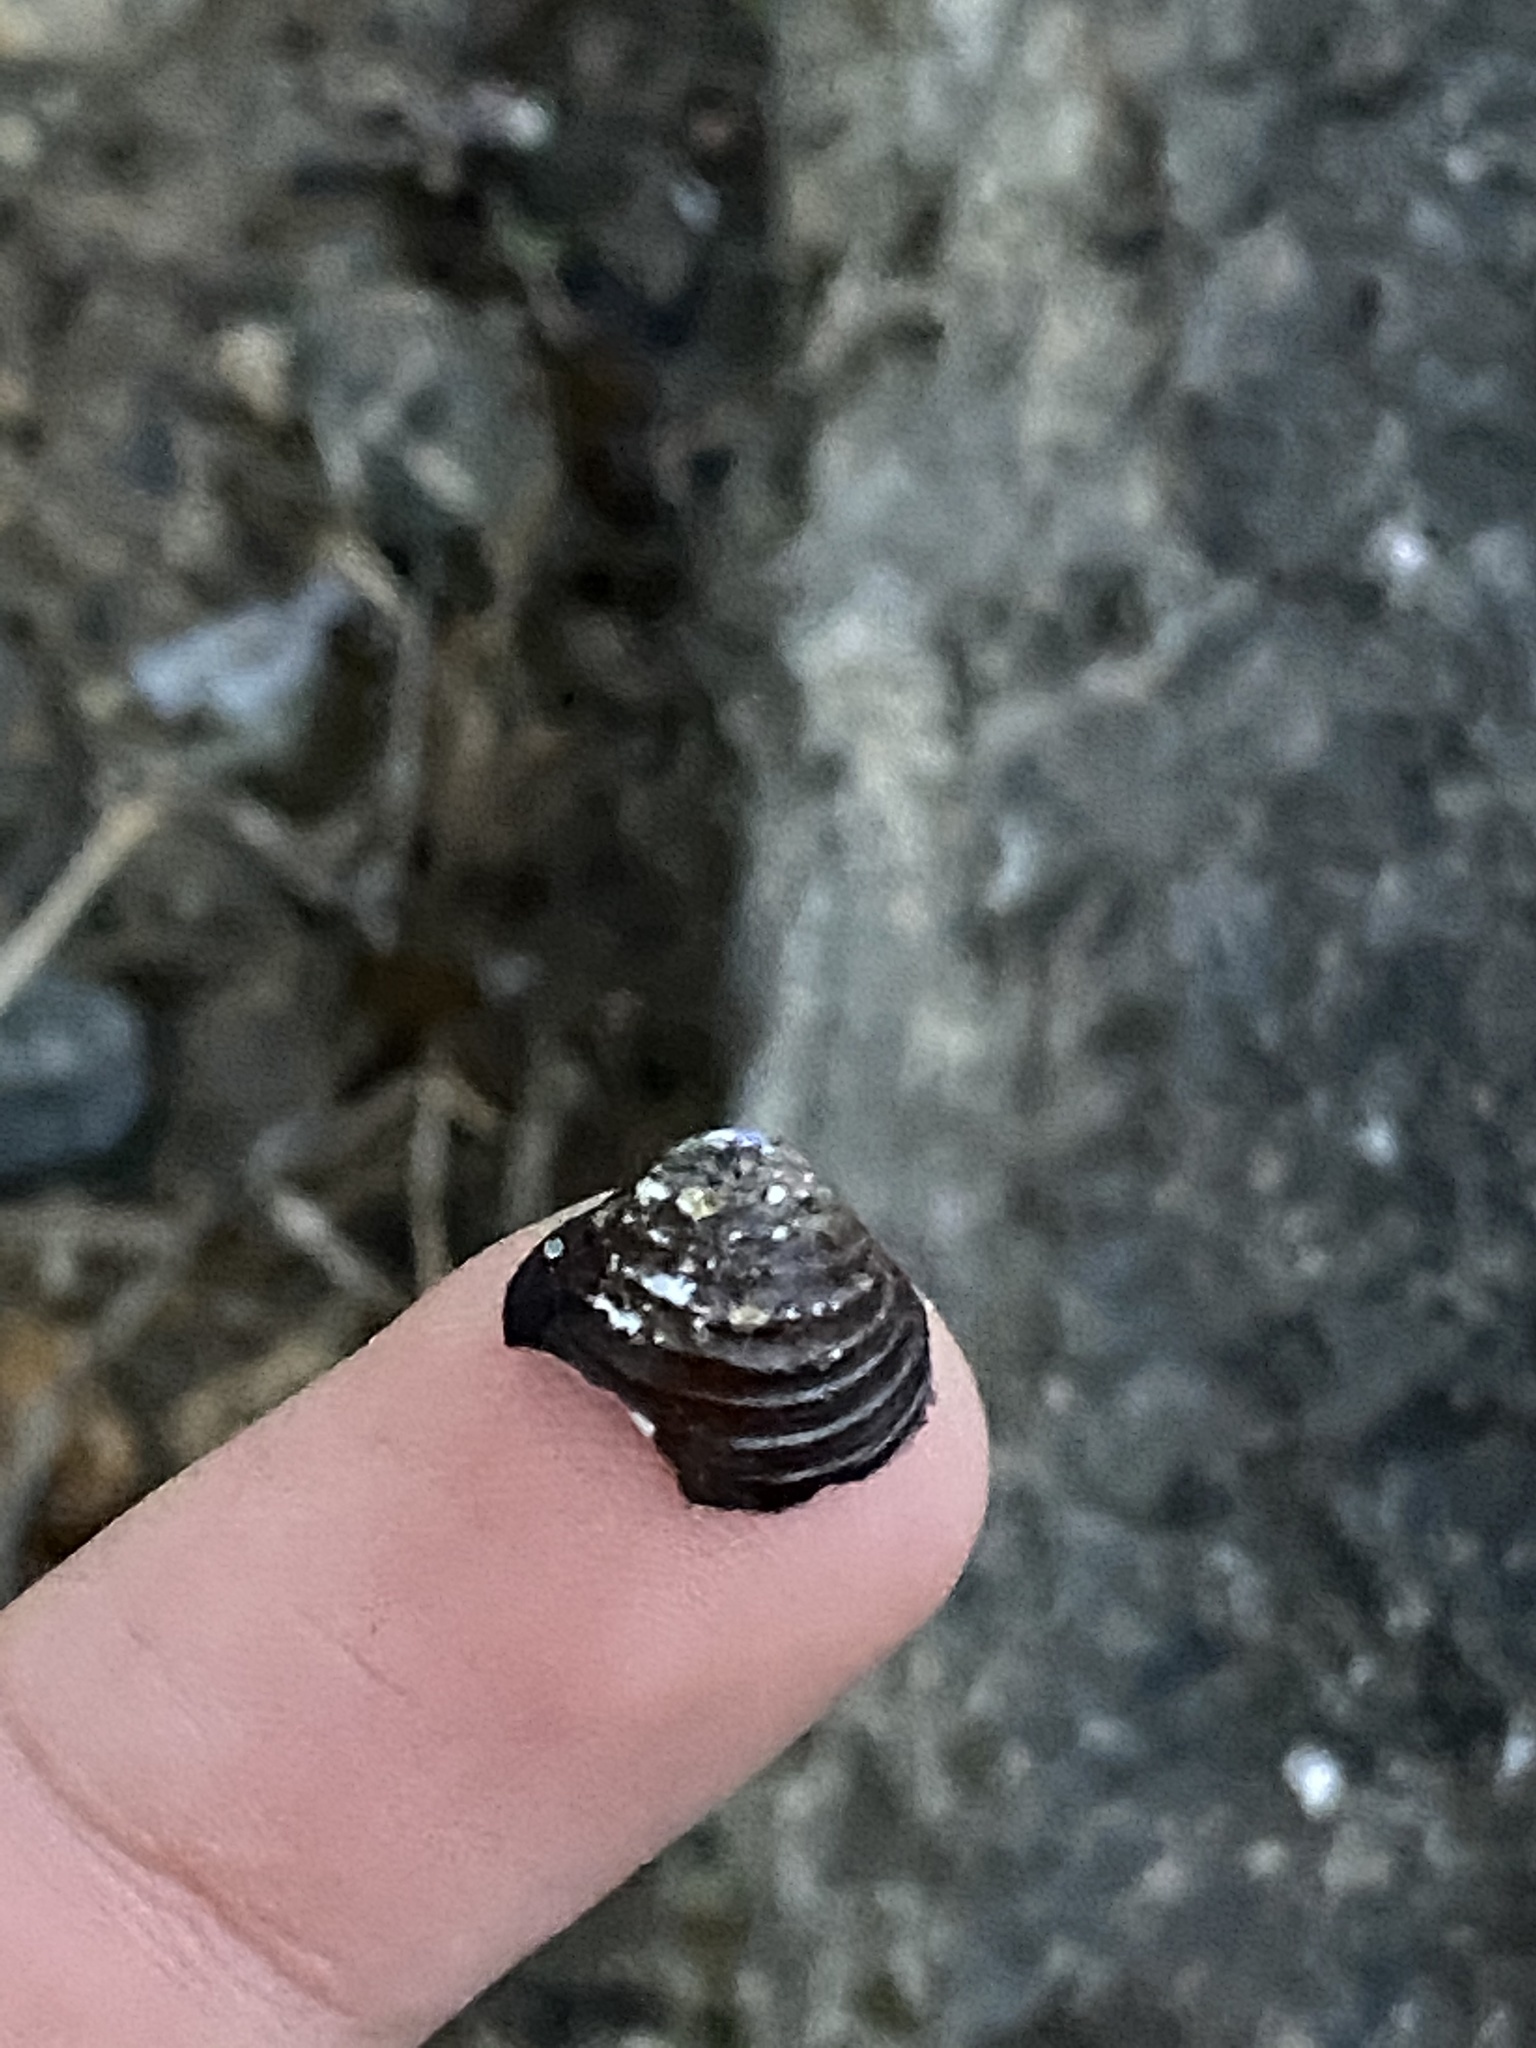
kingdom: Animalia
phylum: Mollusca
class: Bivalvia
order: Venerida
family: Cyrenidae
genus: Corbicula
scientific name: Corbicula fluminea
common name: Asian clam
